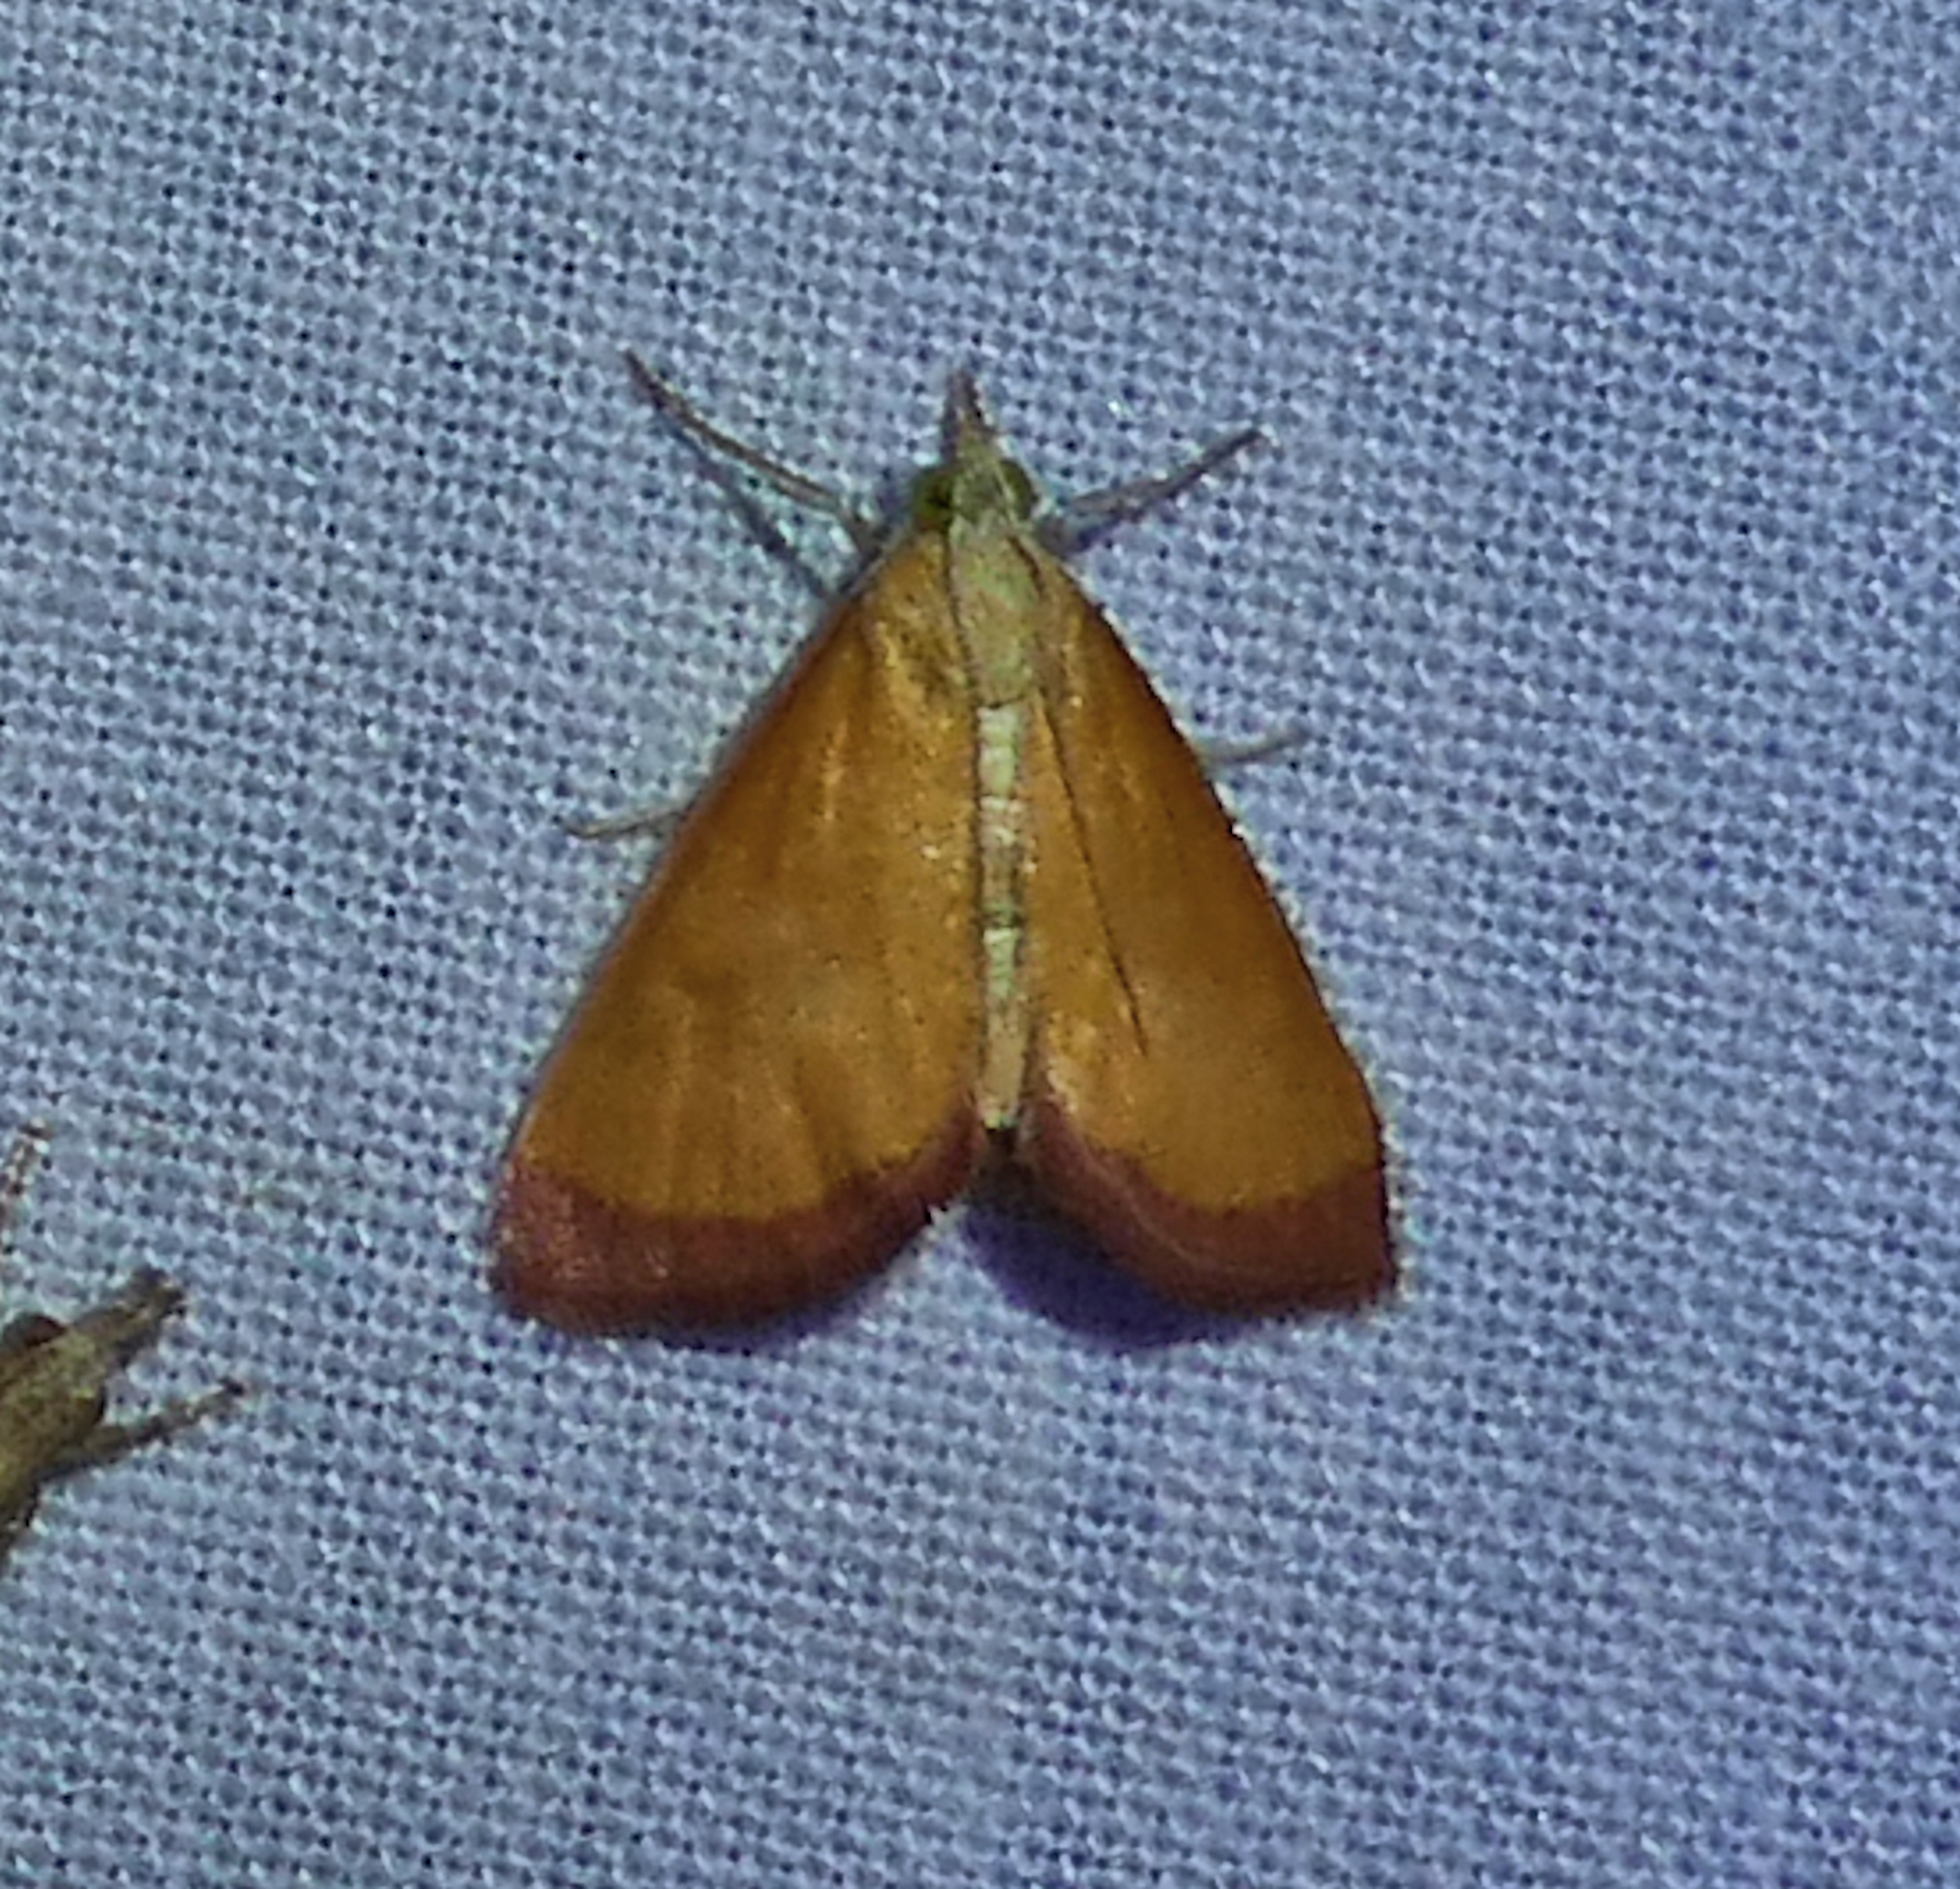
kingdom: Animalia
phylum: Arthropoda
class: Insecta
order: Lepidoptera
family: Crambidae
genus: Xanthostege
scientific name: Xanthostege plana
